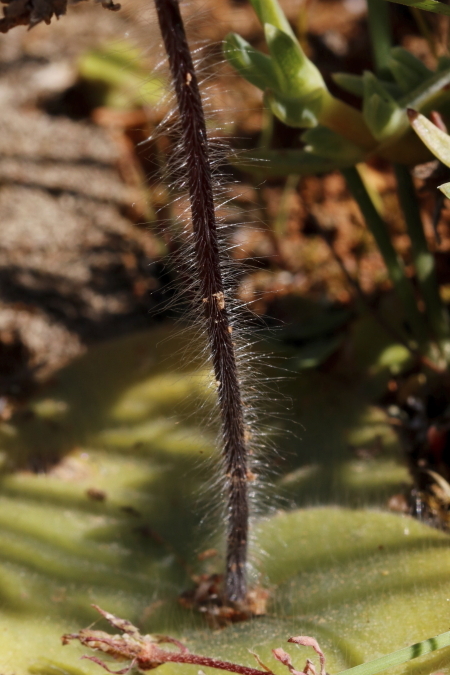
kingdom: Plantae
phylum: Tracheophyta
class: Liliopsida
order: Asparagales
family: Orchidaceae
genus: Holothrix
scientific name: Holothrix villosa
